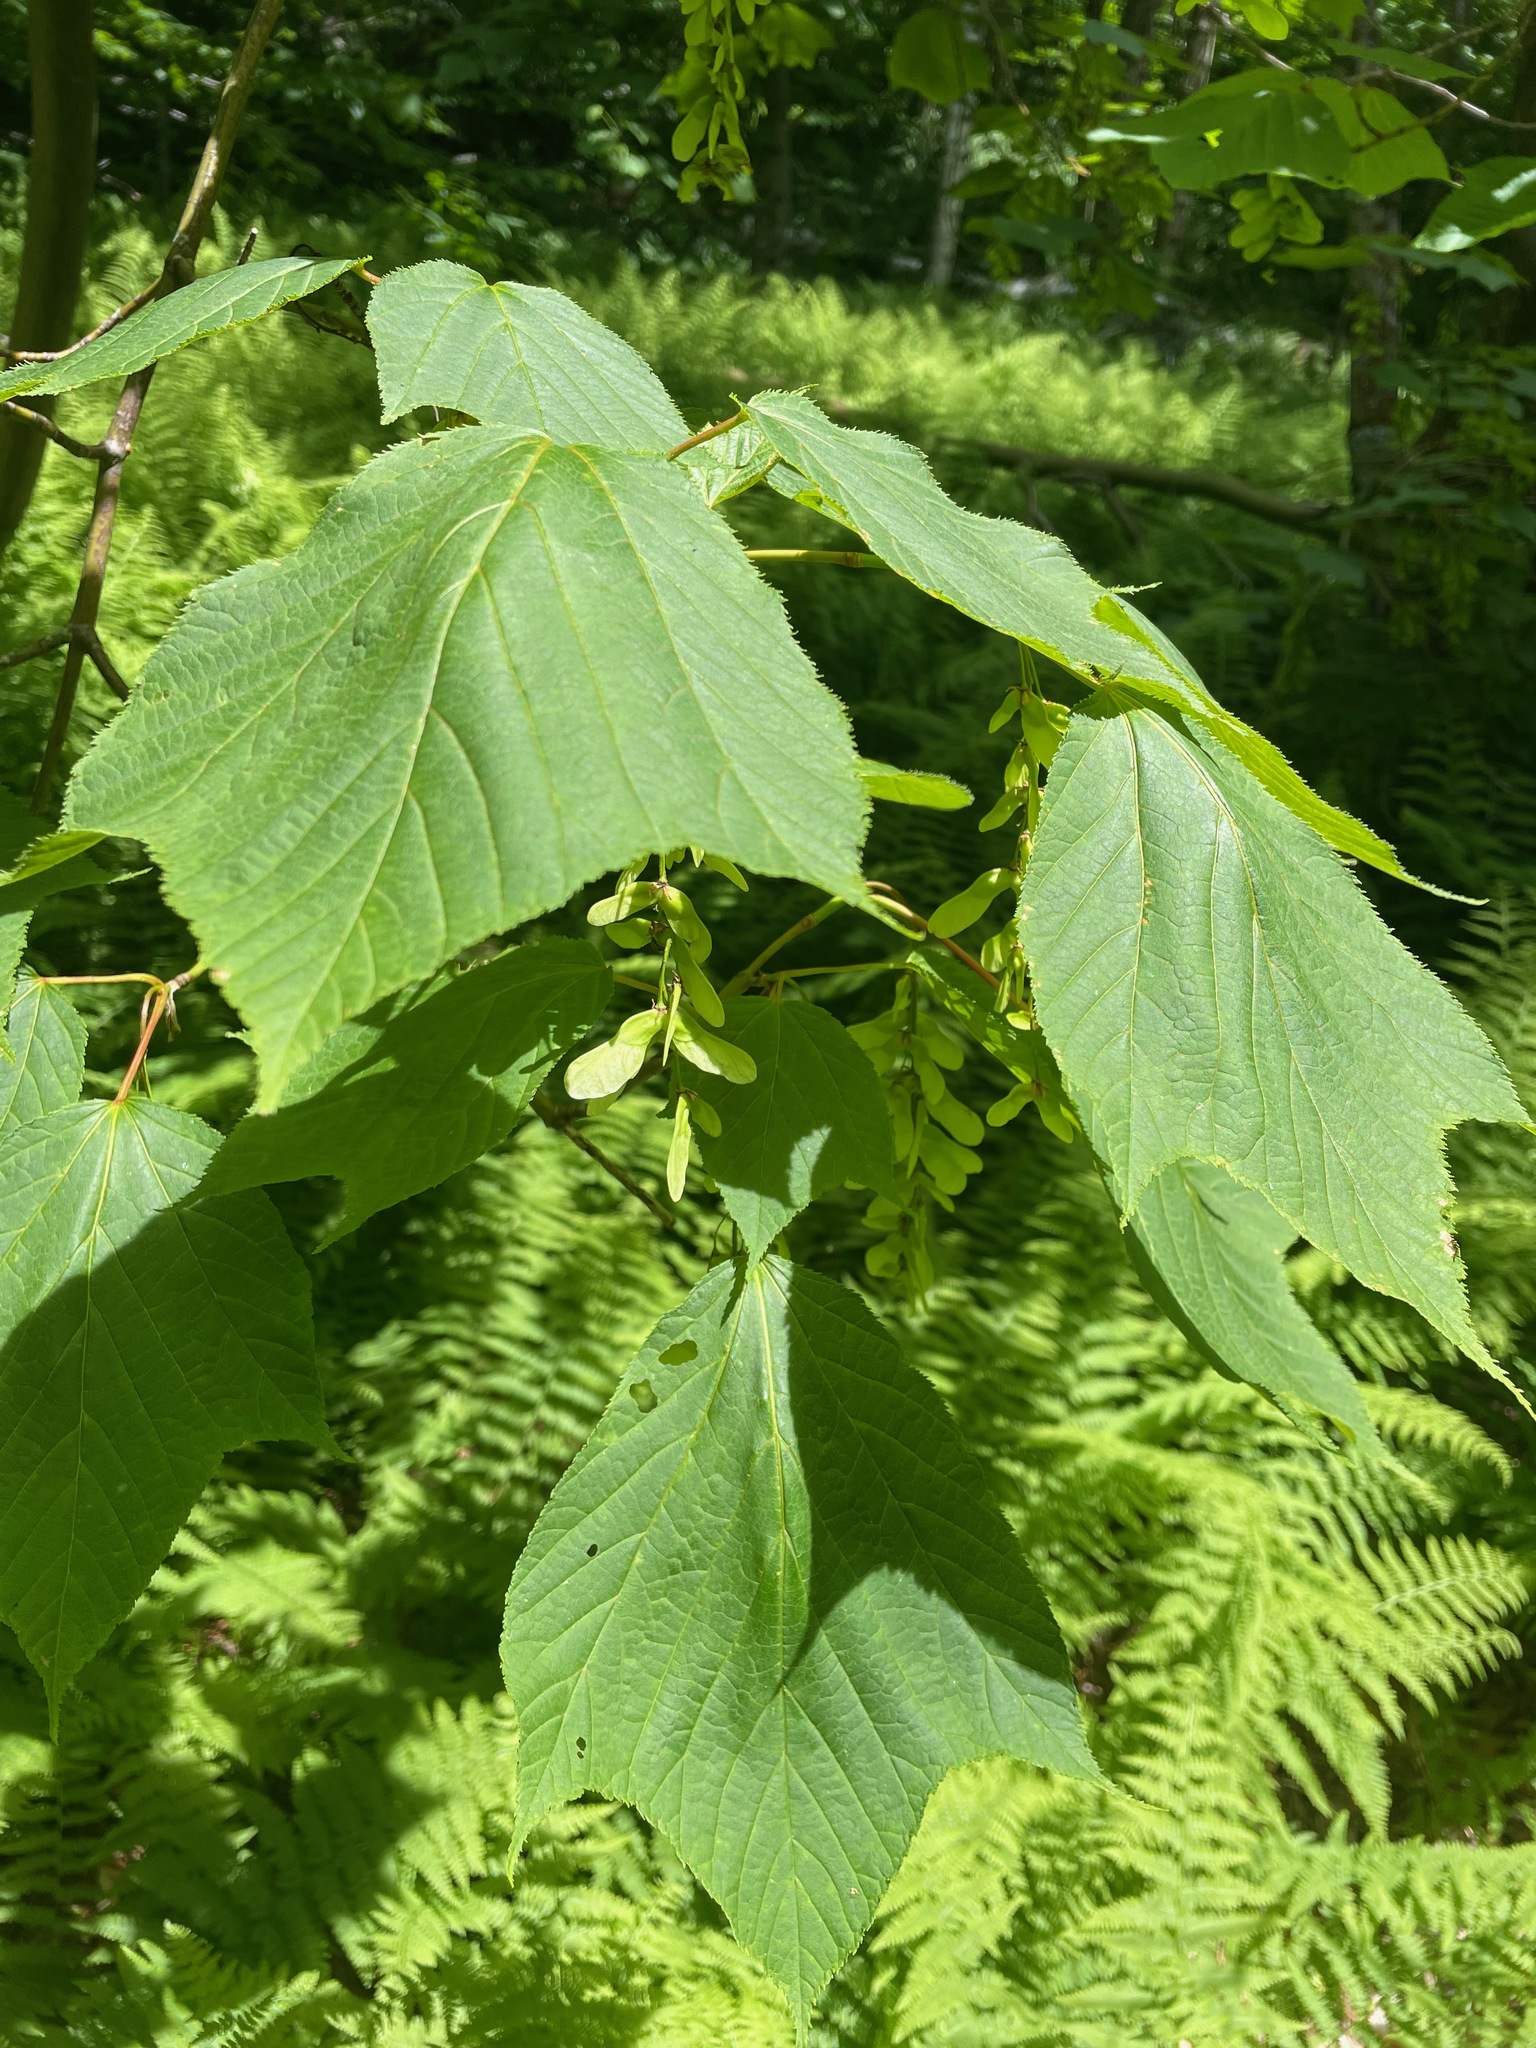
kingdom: Plantae
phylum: Tracheophyta
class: Magnoliopsida
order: Sapindales
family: Sapindaceae
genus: Acer
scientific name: Acer pensylvanicum
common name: Moosewood
